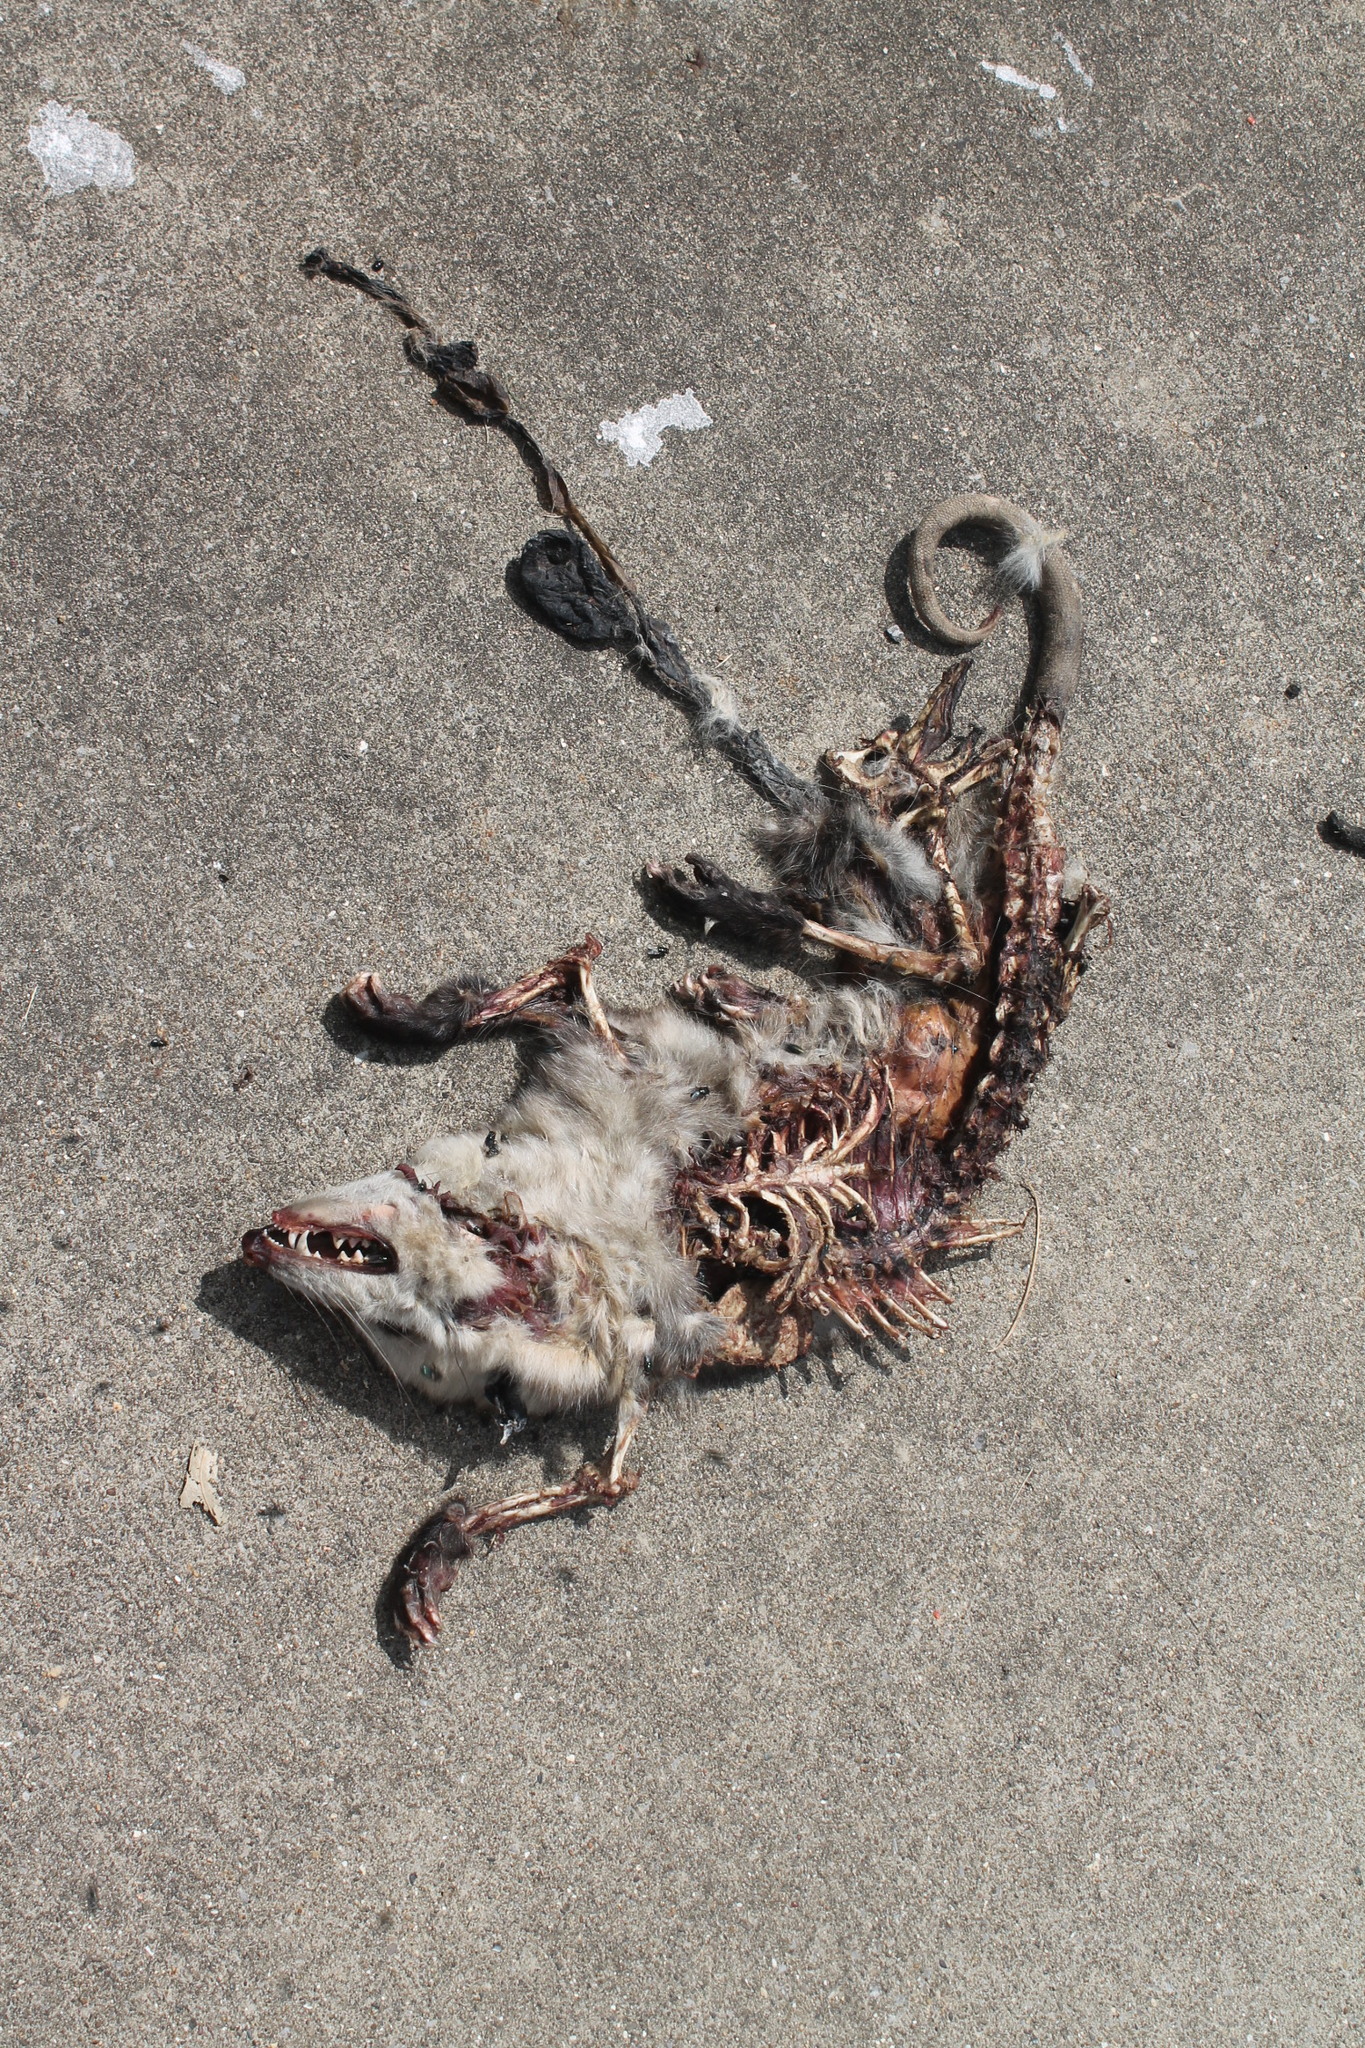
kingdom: Animalia
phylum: Chordata
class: Mammalia
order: Didelphimorphia
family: Didelphidae
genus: Didelphis
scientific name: Didelphis virginiana
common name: Virginia opossum
